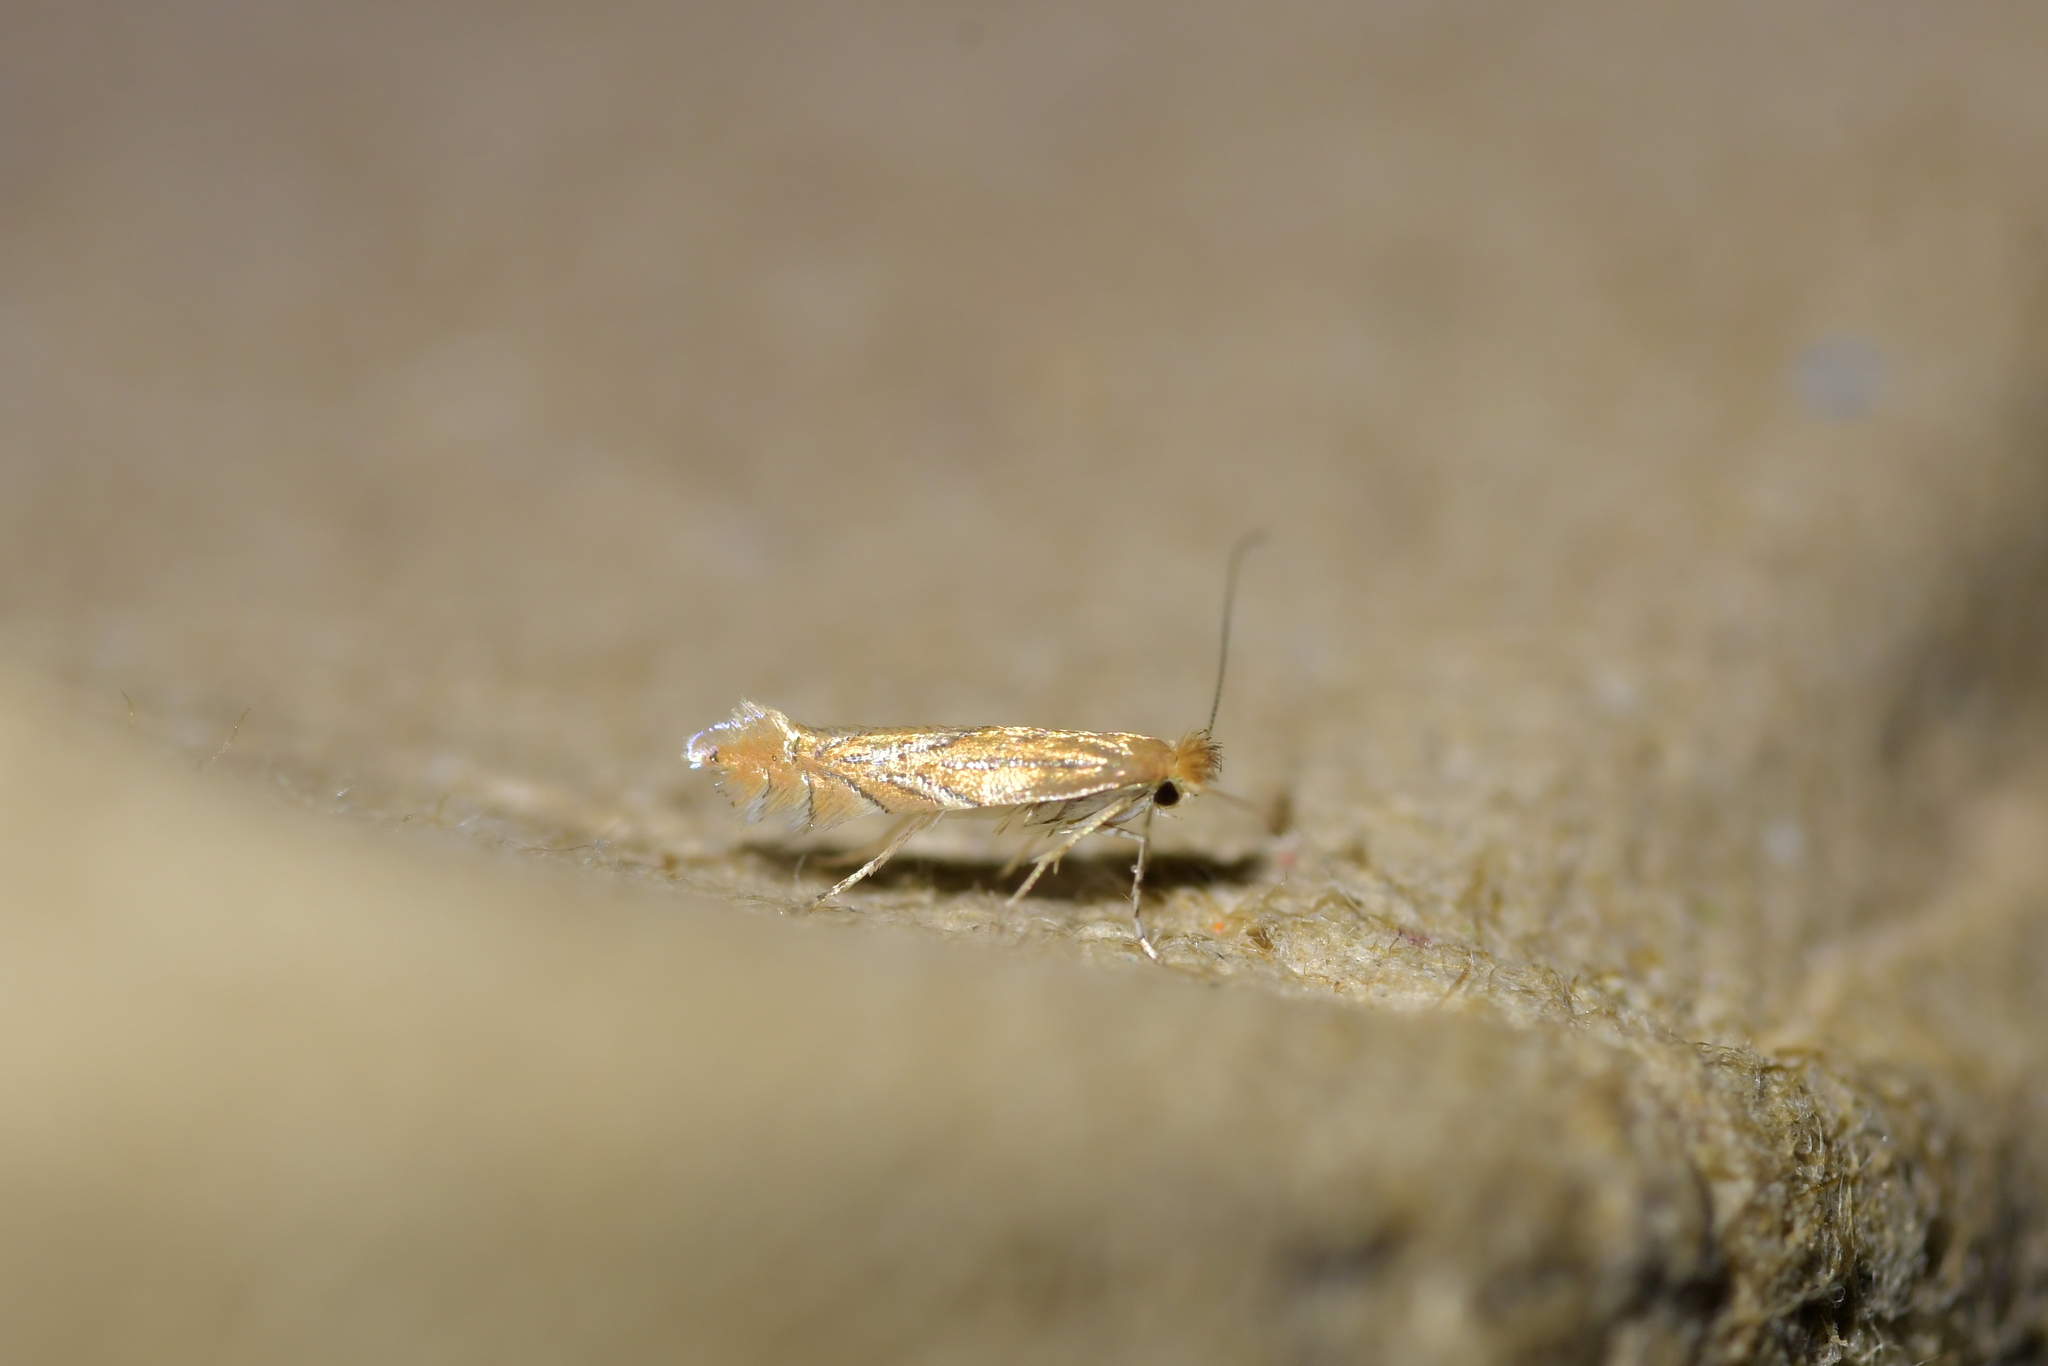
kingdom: Animalia
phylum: Arthropoda
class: Insecta
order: Lepidoptera
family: Gracillariidae
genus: Phyllonorycter
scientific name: Phyllonorycter messaniella
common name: Garden midget
